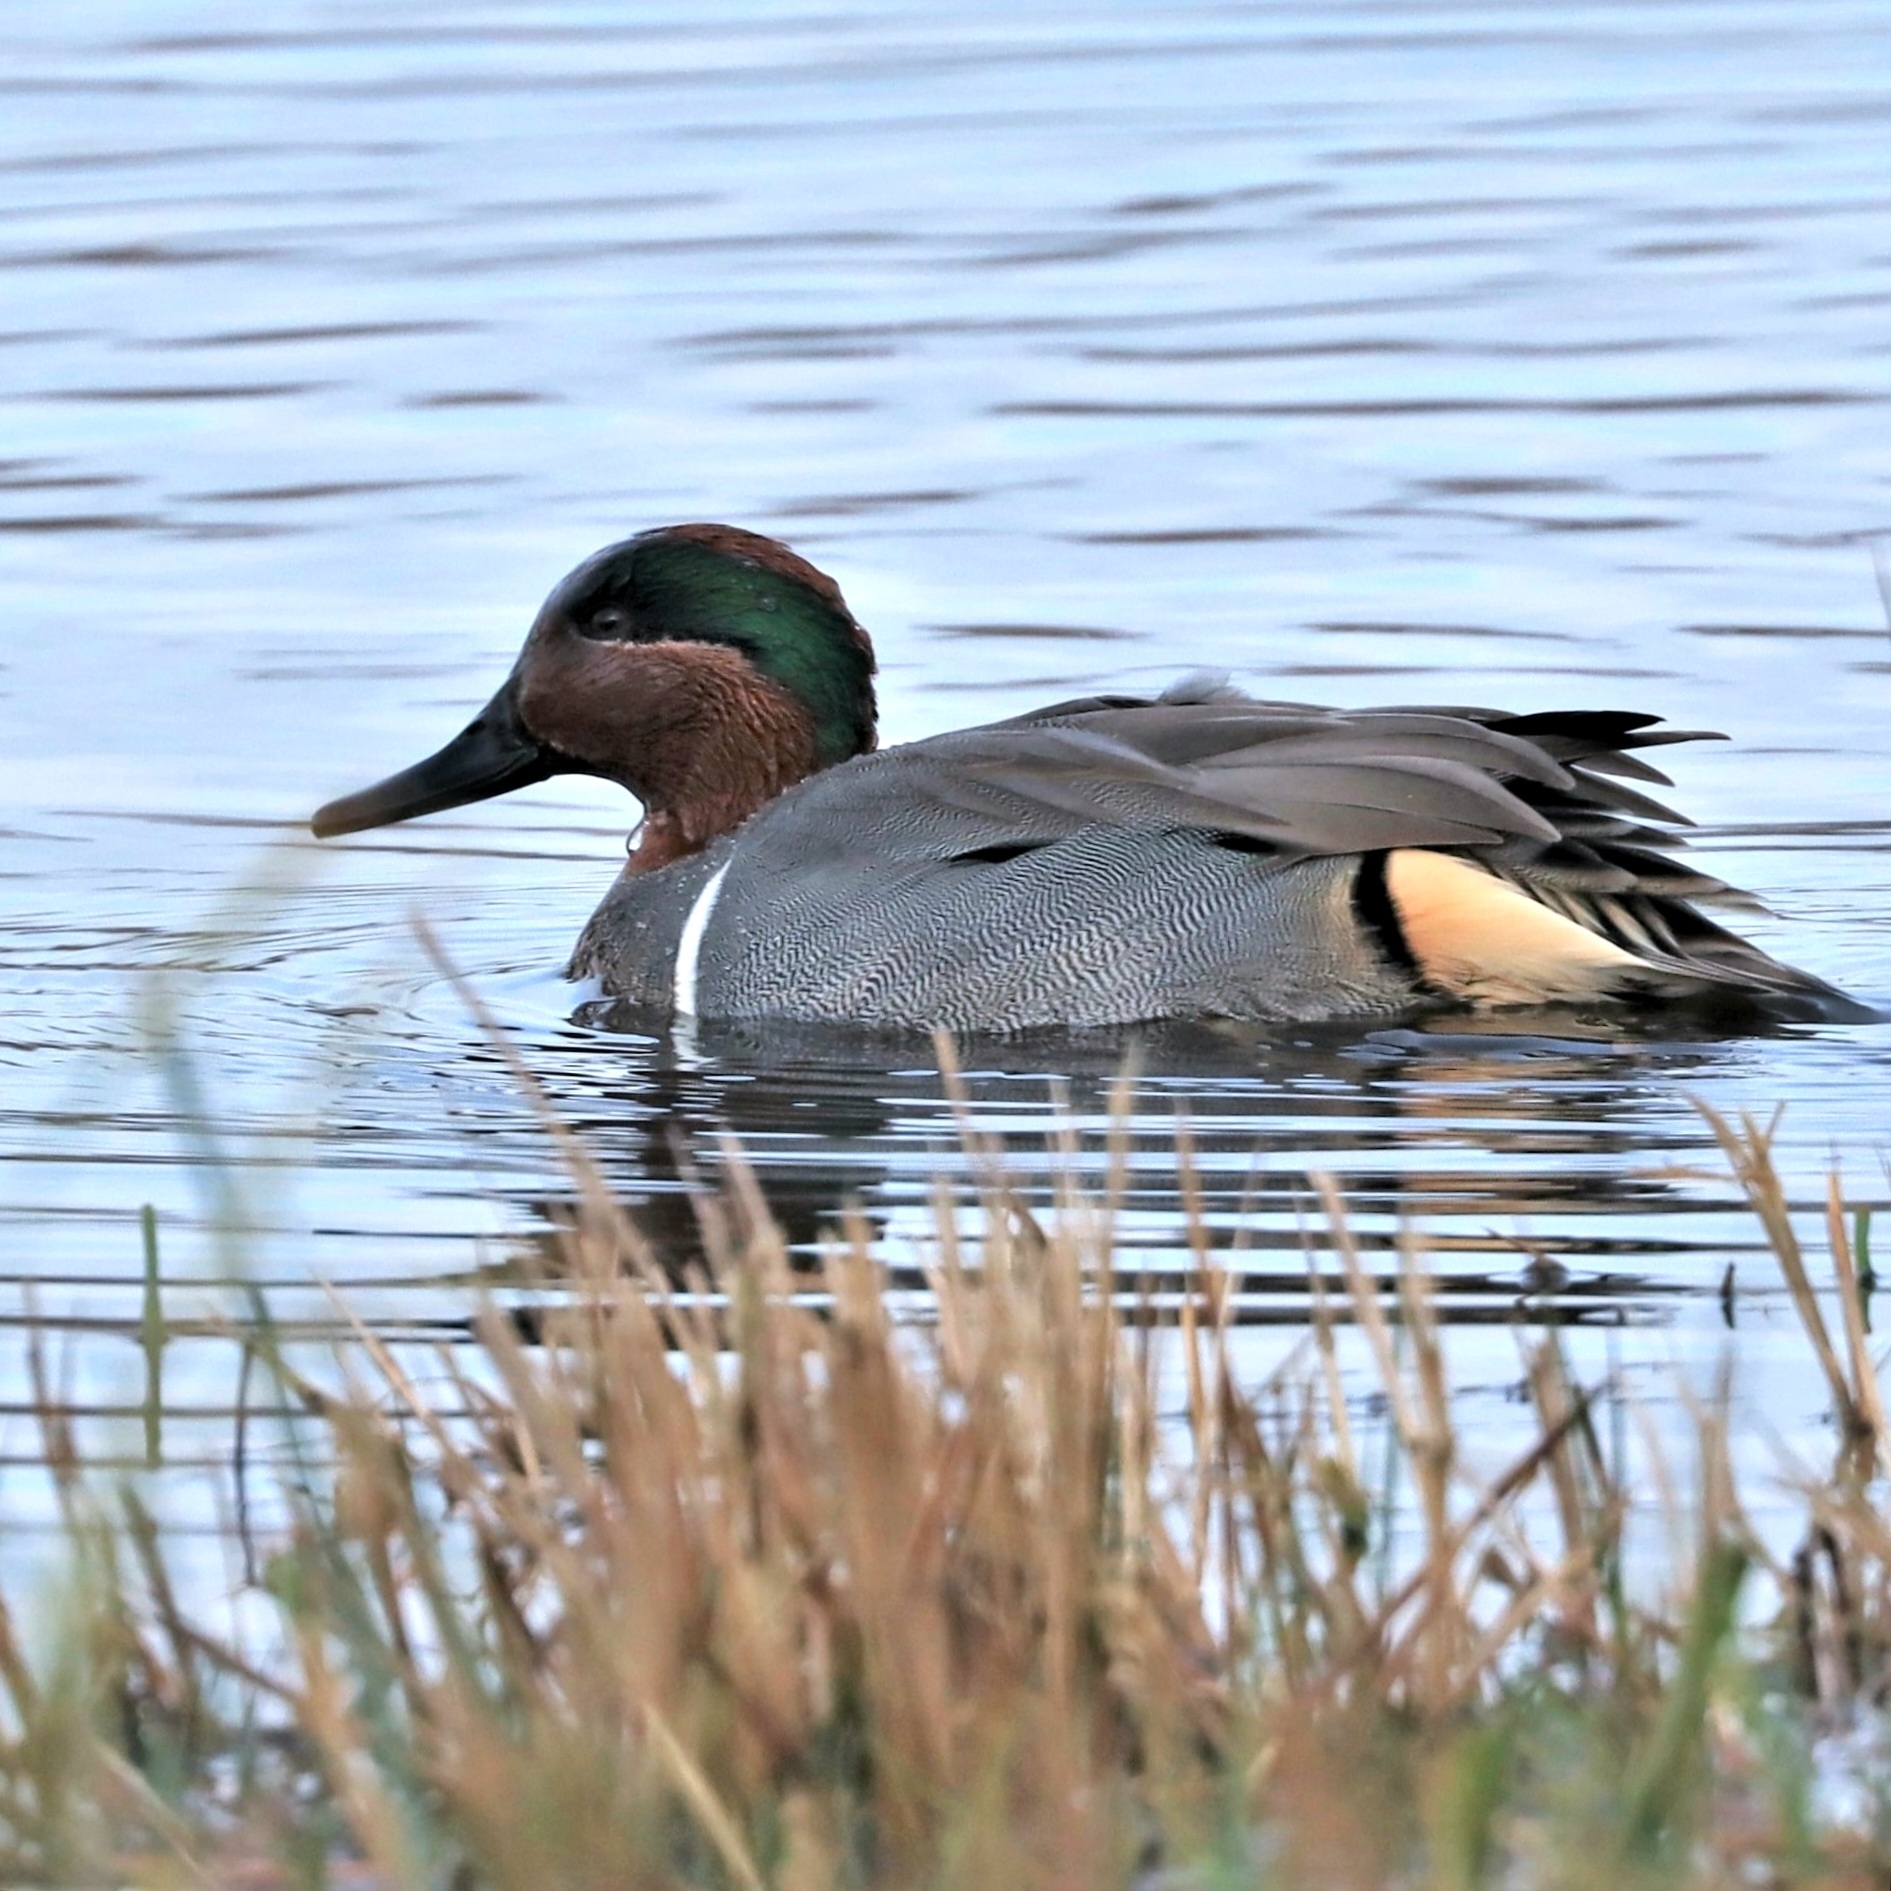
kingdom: Animalia
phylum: Chordata
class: Aves
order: Anseriformes
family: Anatidae
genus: Anas
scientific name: Anas carolinensis
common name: Green-winged teal
